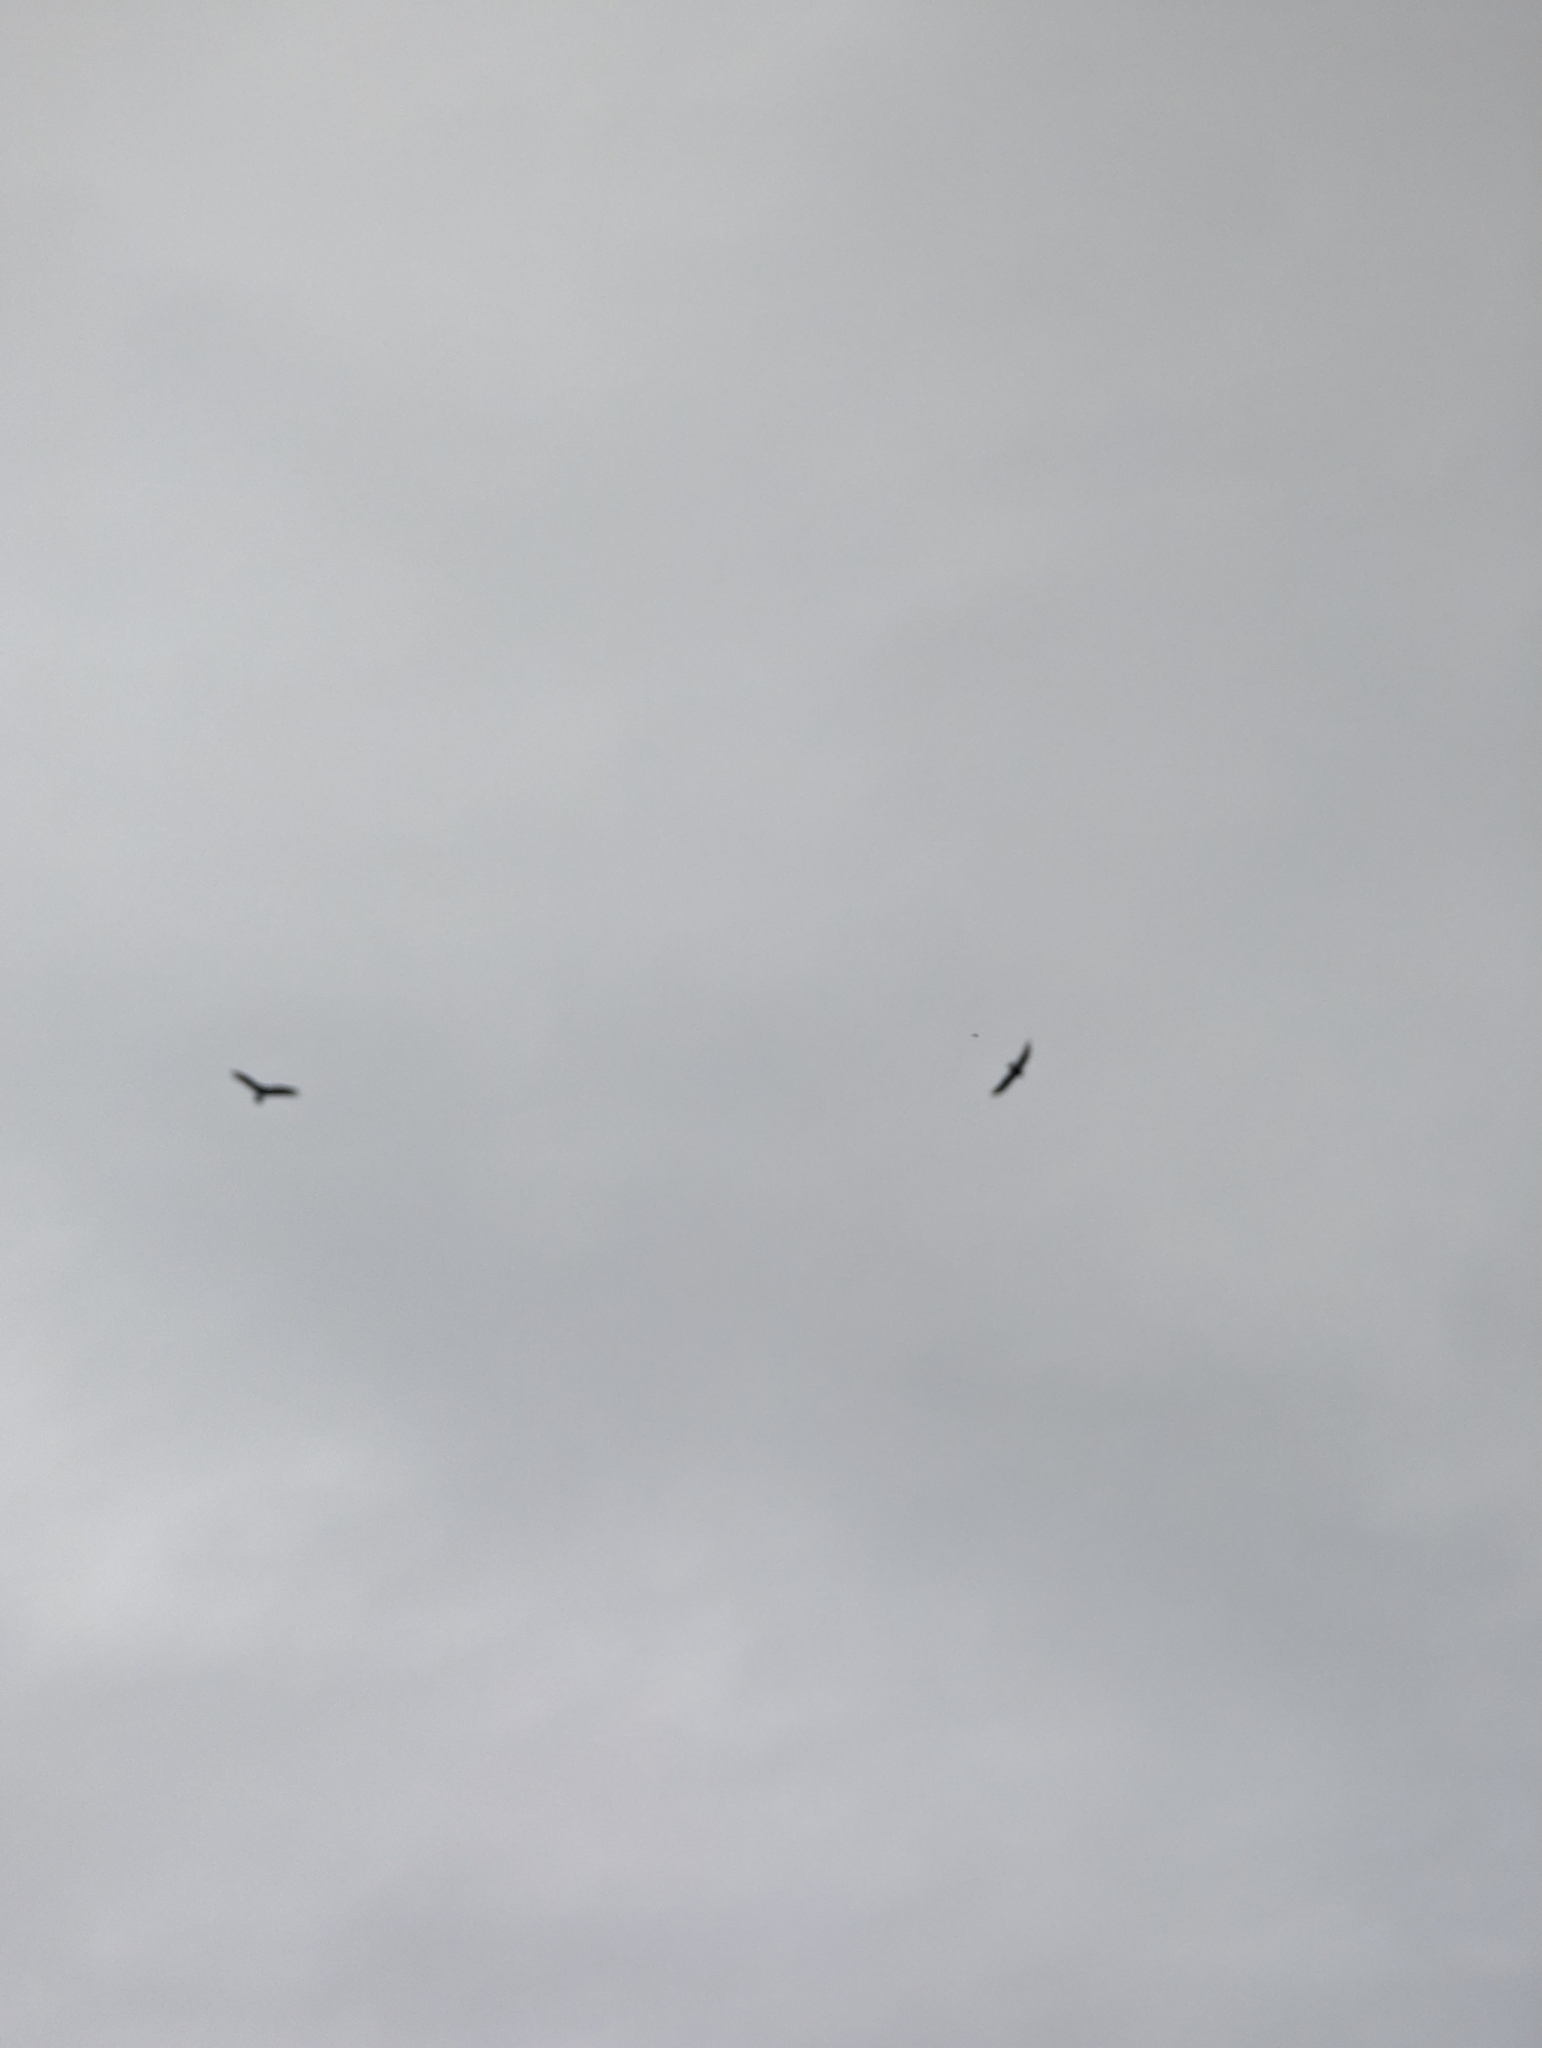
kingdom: Animalia
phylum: Chordata
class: Aves
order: Accipitriformes
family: Cathartidae
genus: Cathartes
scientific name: Cathartes aura
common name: Turkey vulture
